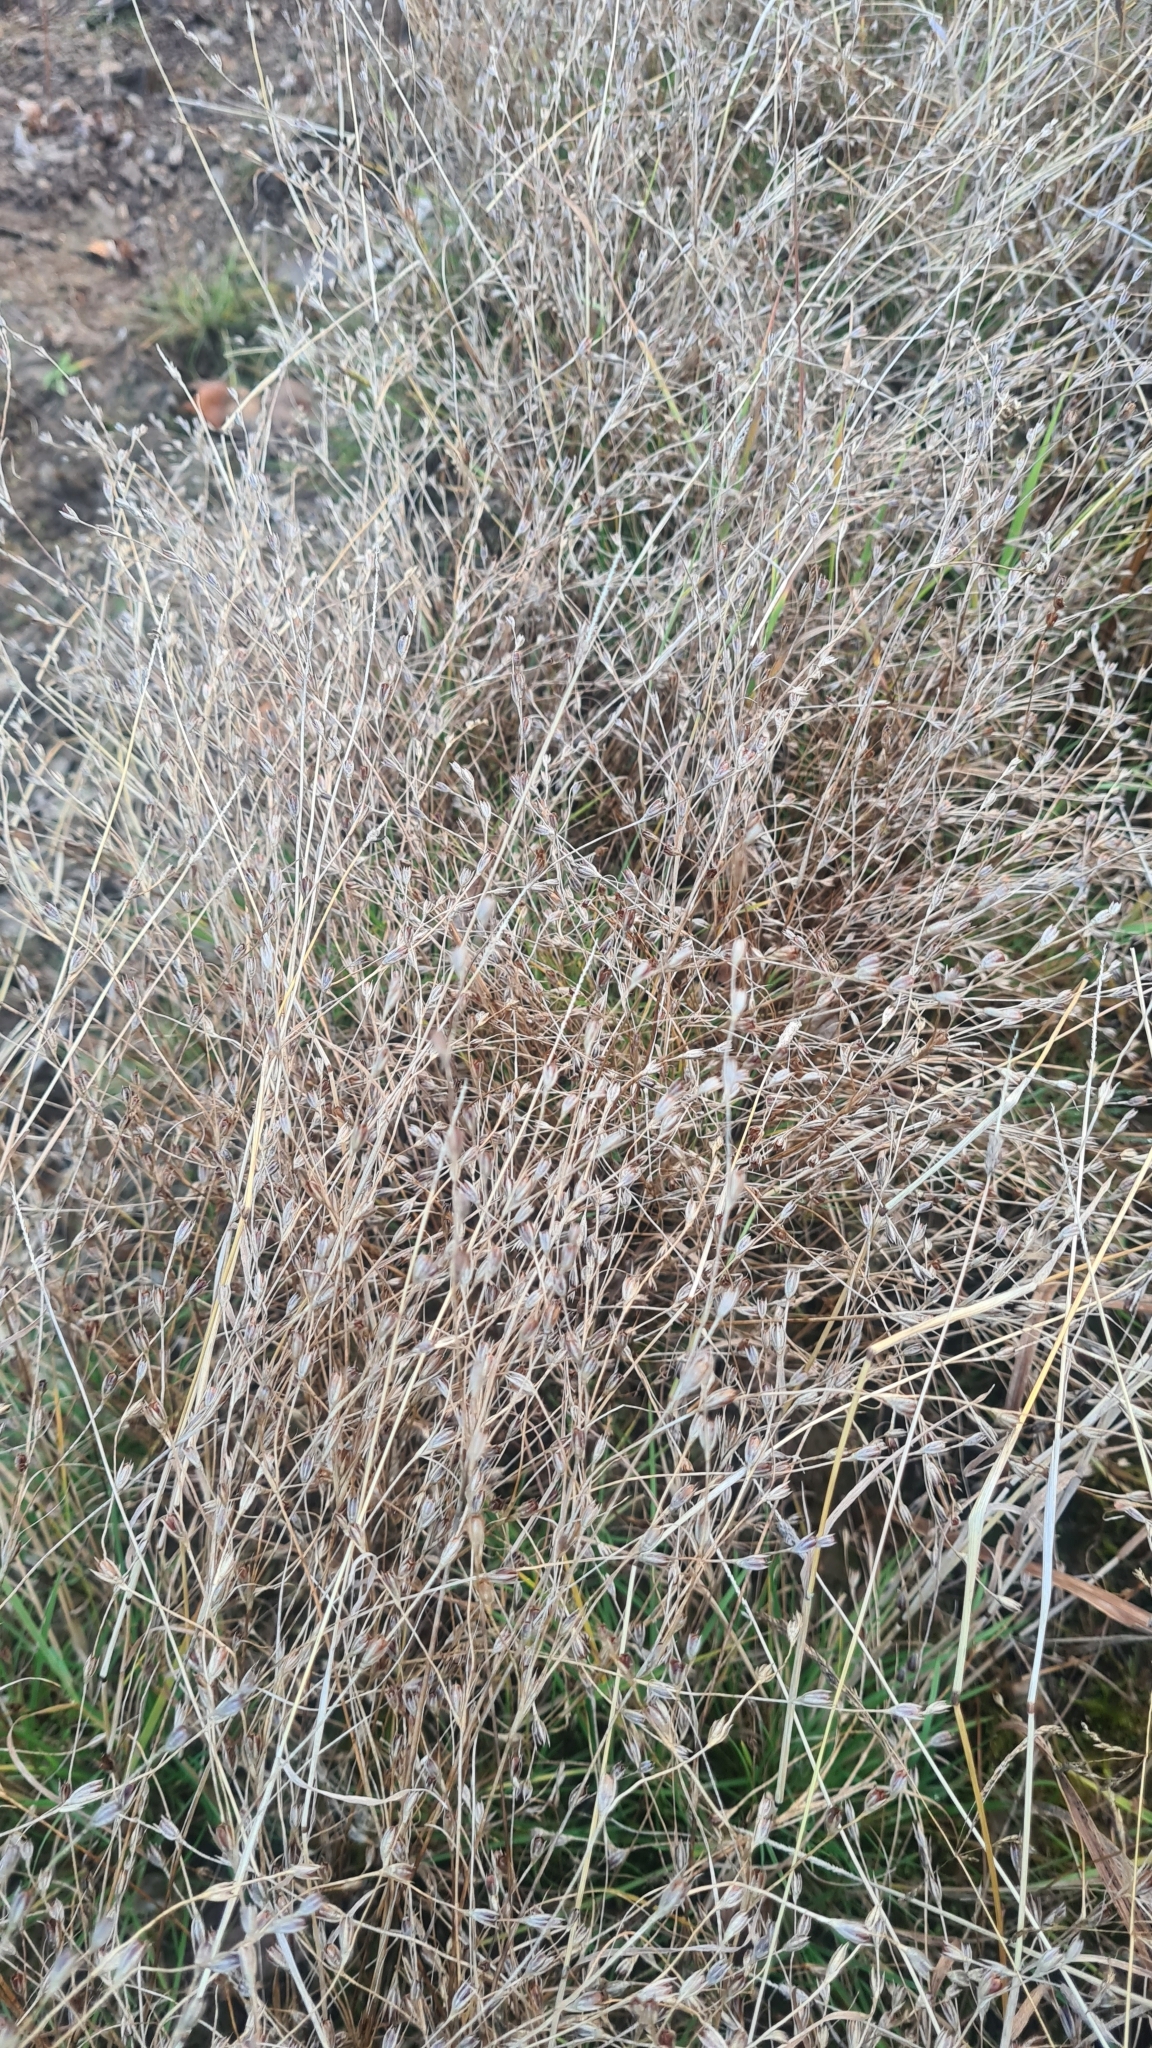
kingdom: Plantae
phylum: Tracheophyta
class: Liliopsida
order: Poales
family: Juncaceae
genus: Juncus
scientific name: Juncus bufonius
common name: Toad rush
